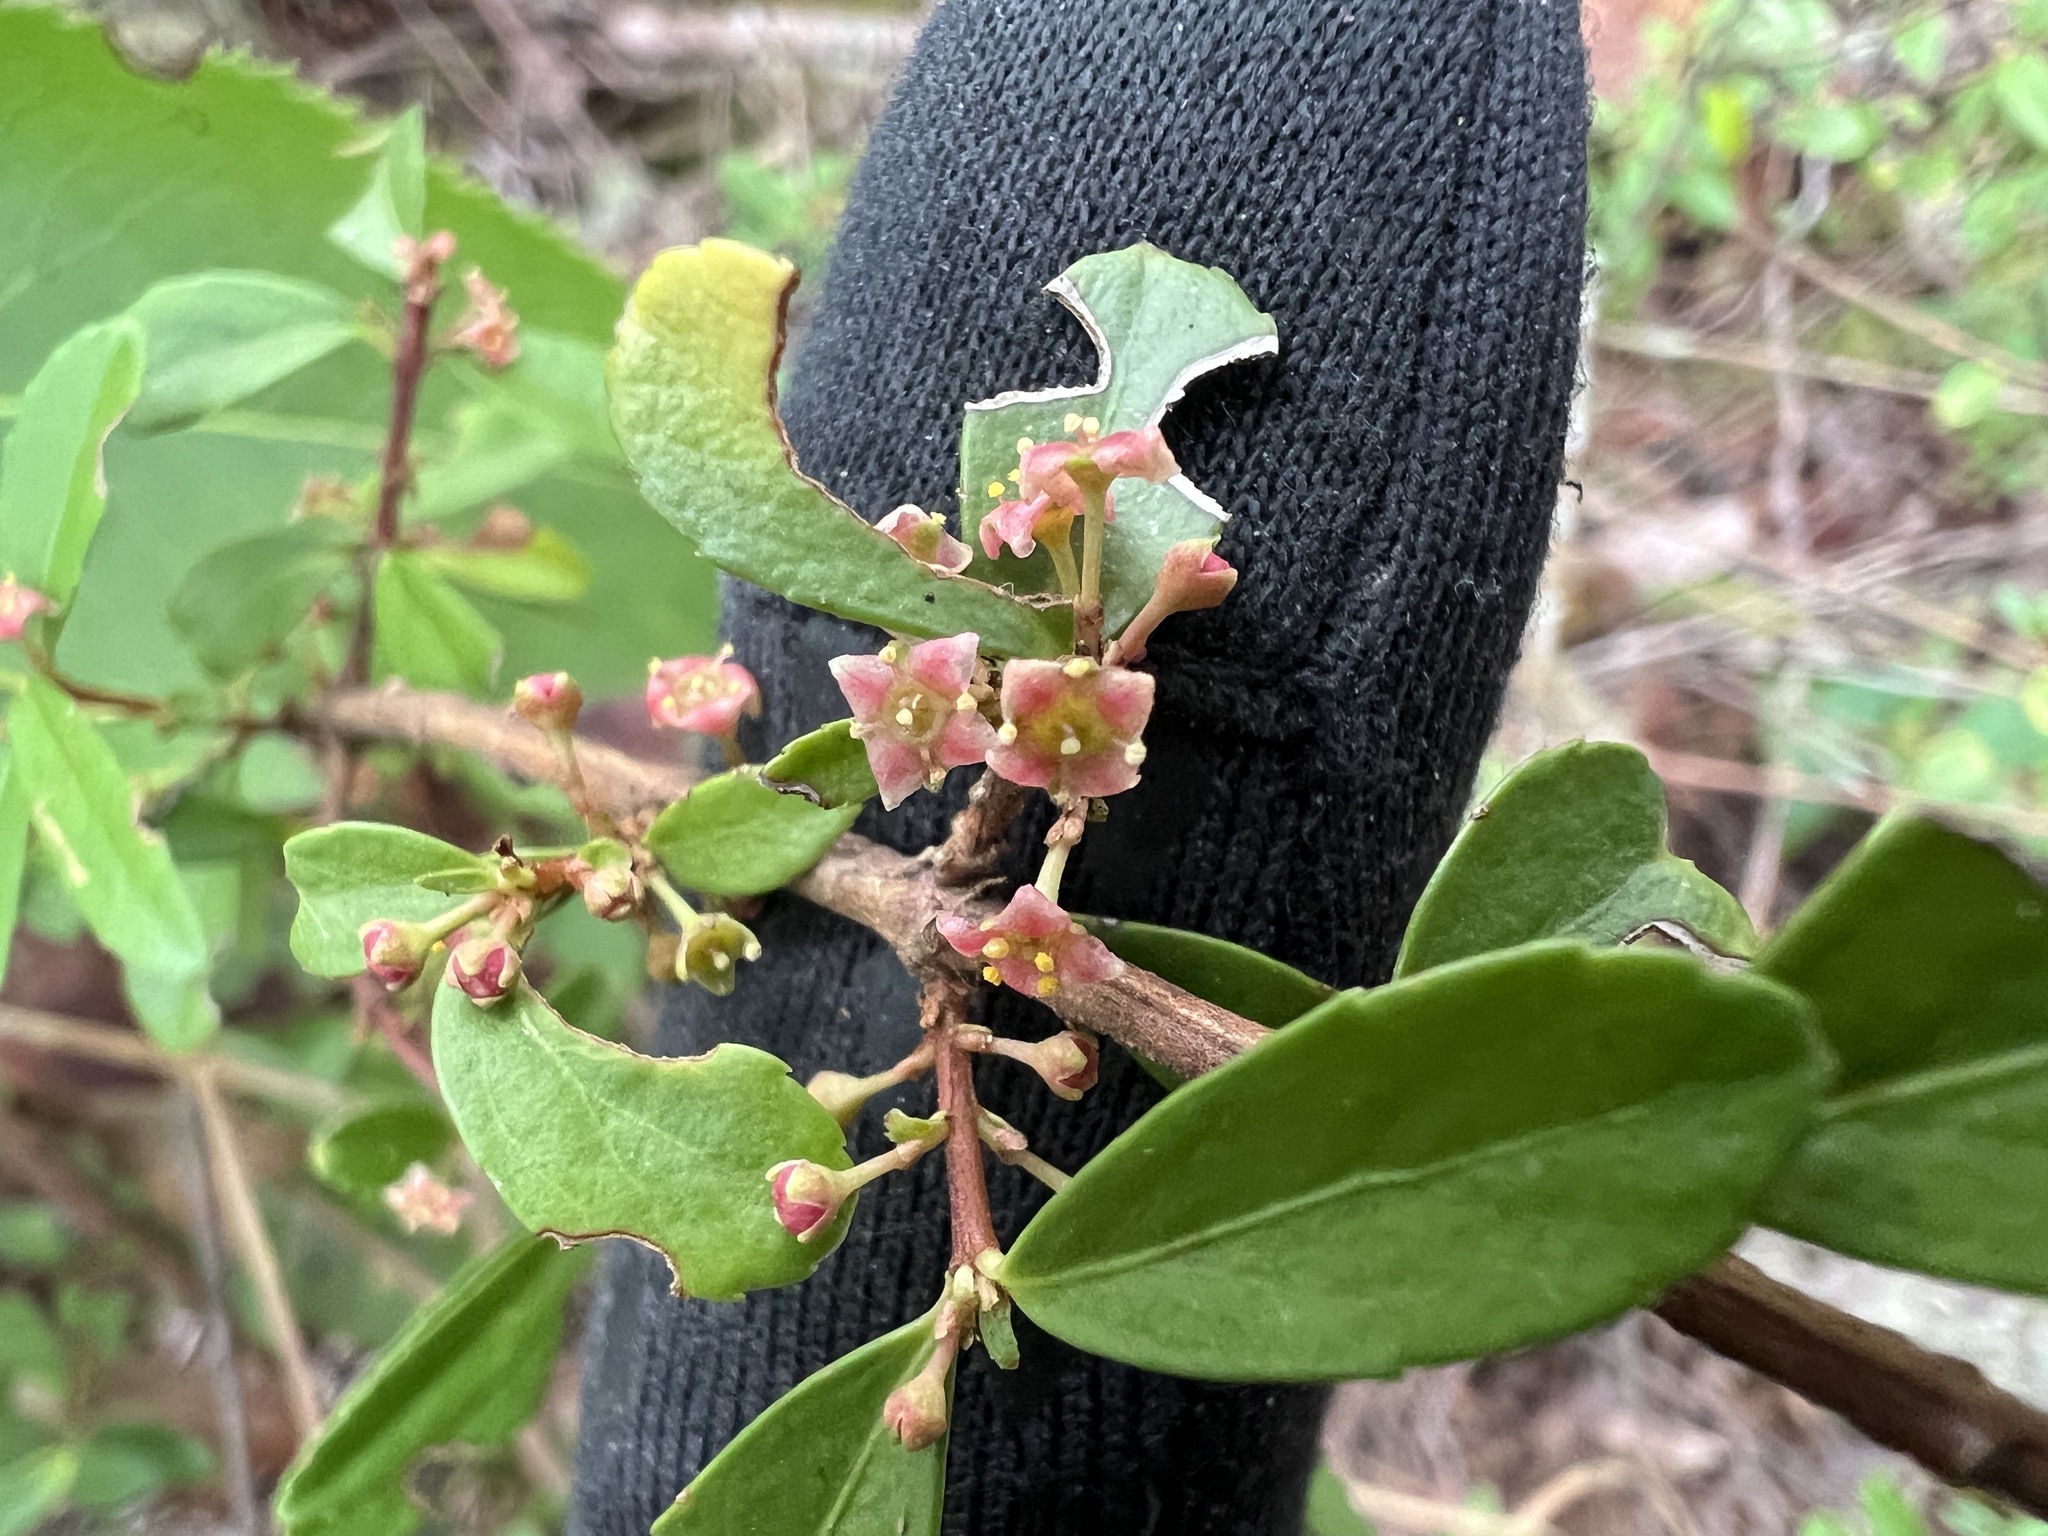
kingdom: Plantae
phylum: Tracheophyta
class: Magnoliopsida
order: Celastrales
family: Celastraceae
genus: Paxistima
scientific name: Paxistima myrsinites
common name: Mountain-lover
